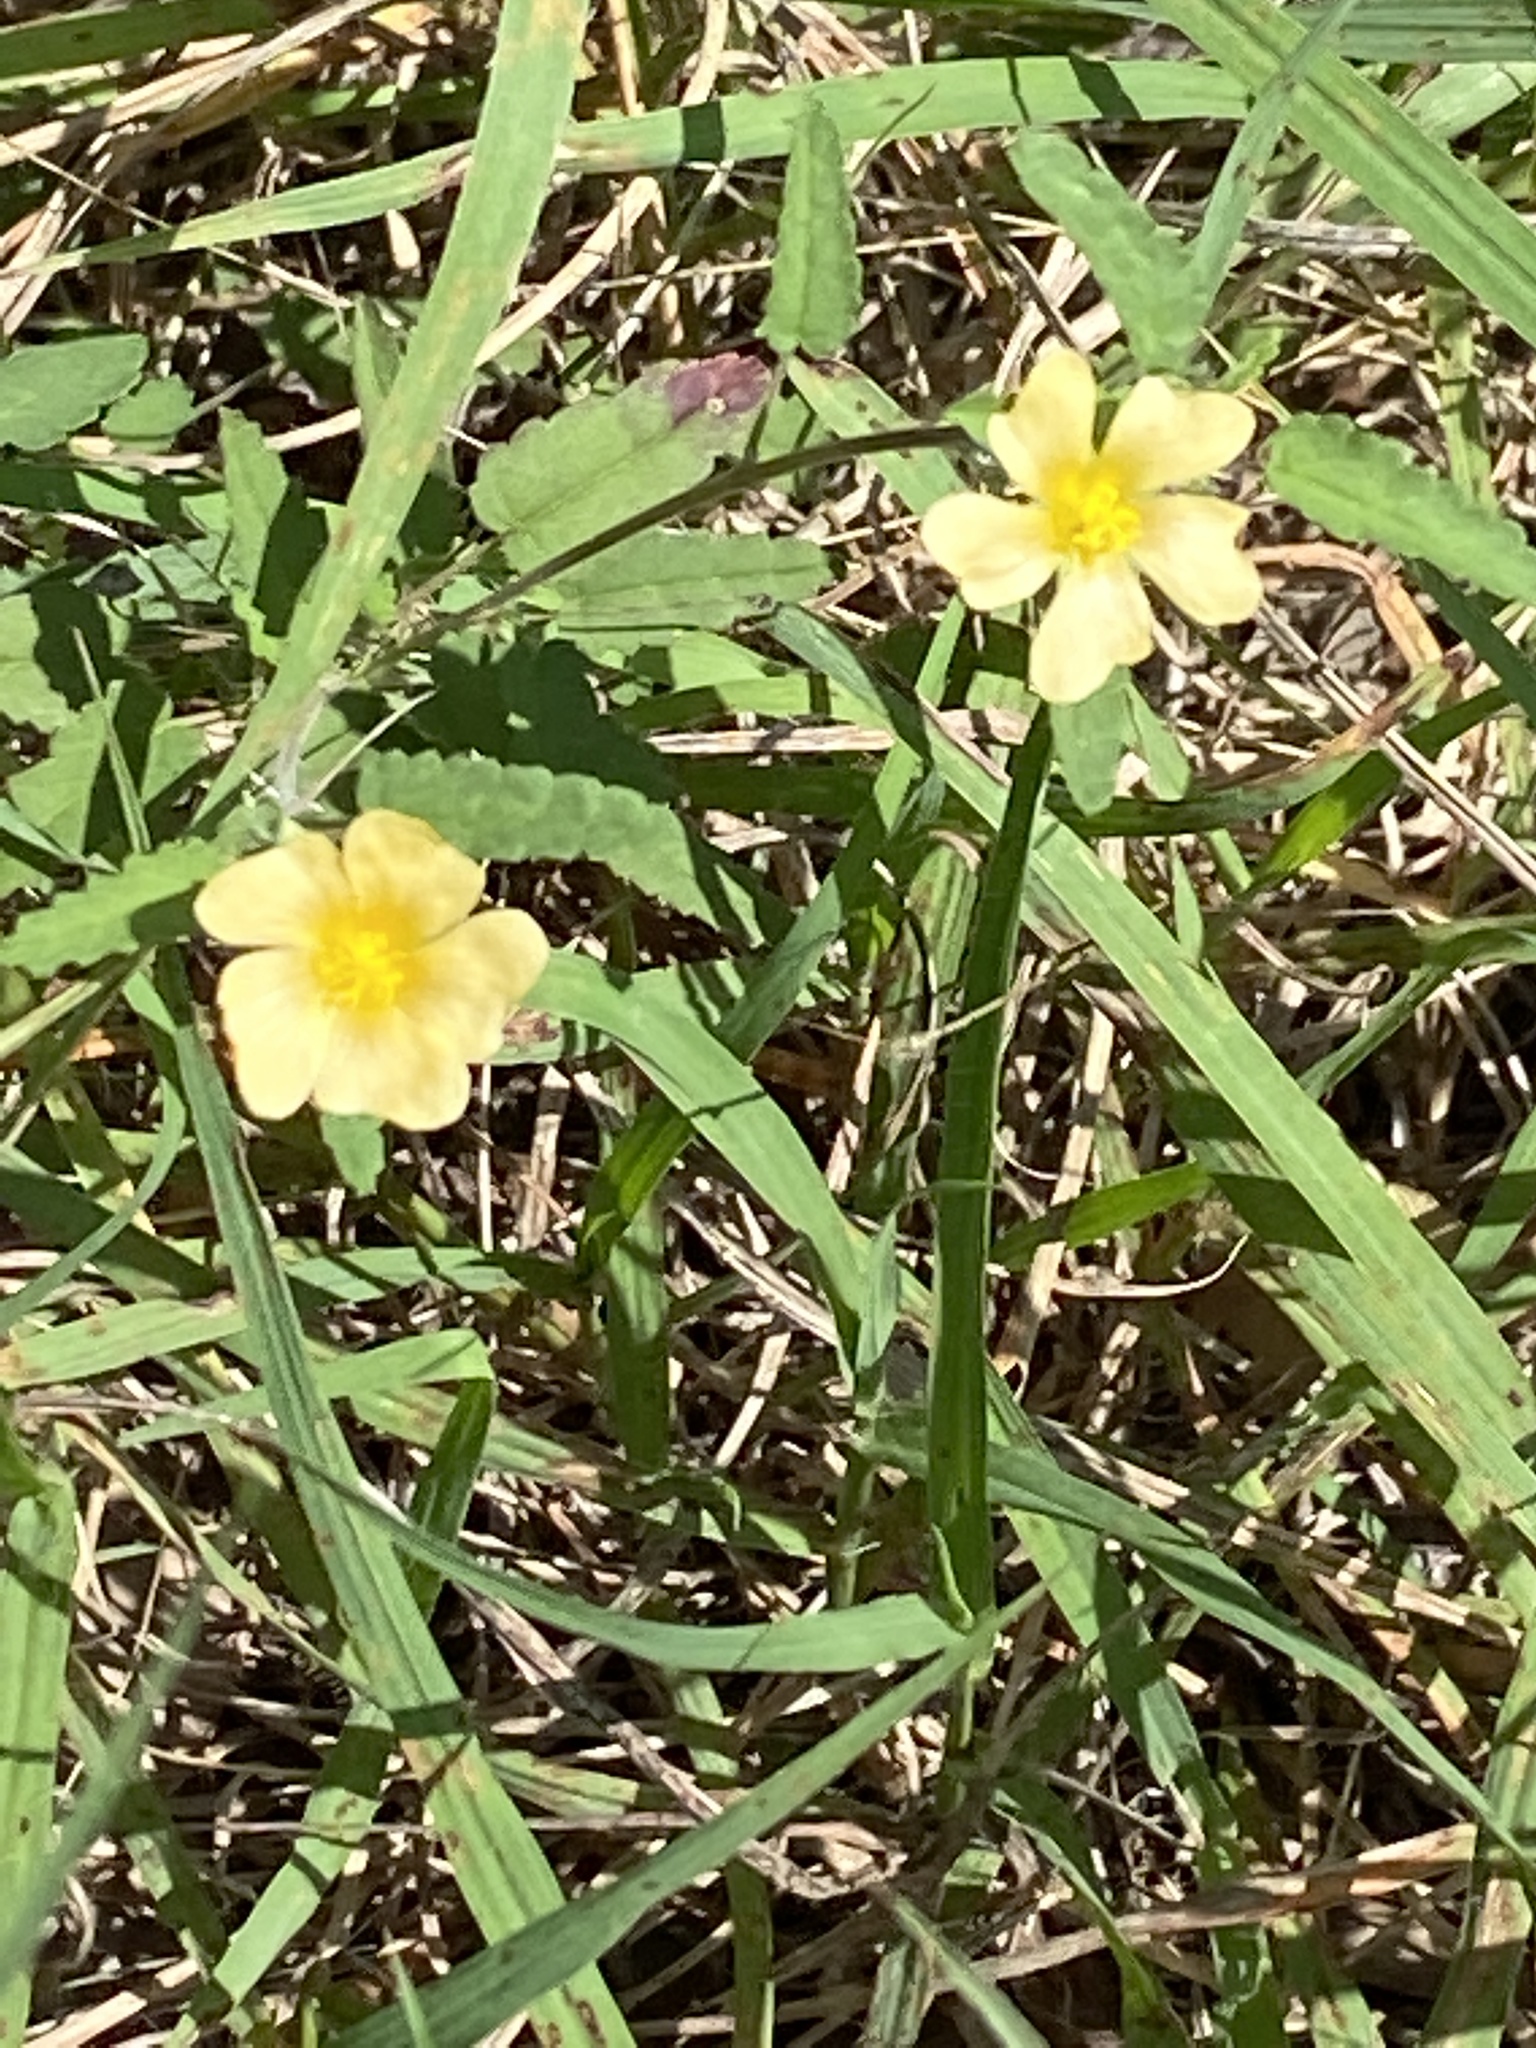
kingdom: Plantae
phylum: Tracheophyta
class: Magnoliopsida
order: Malvales
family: Malvaceae
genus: Sida
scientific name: Sida abutilifolia
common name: Spreading fanpetals
